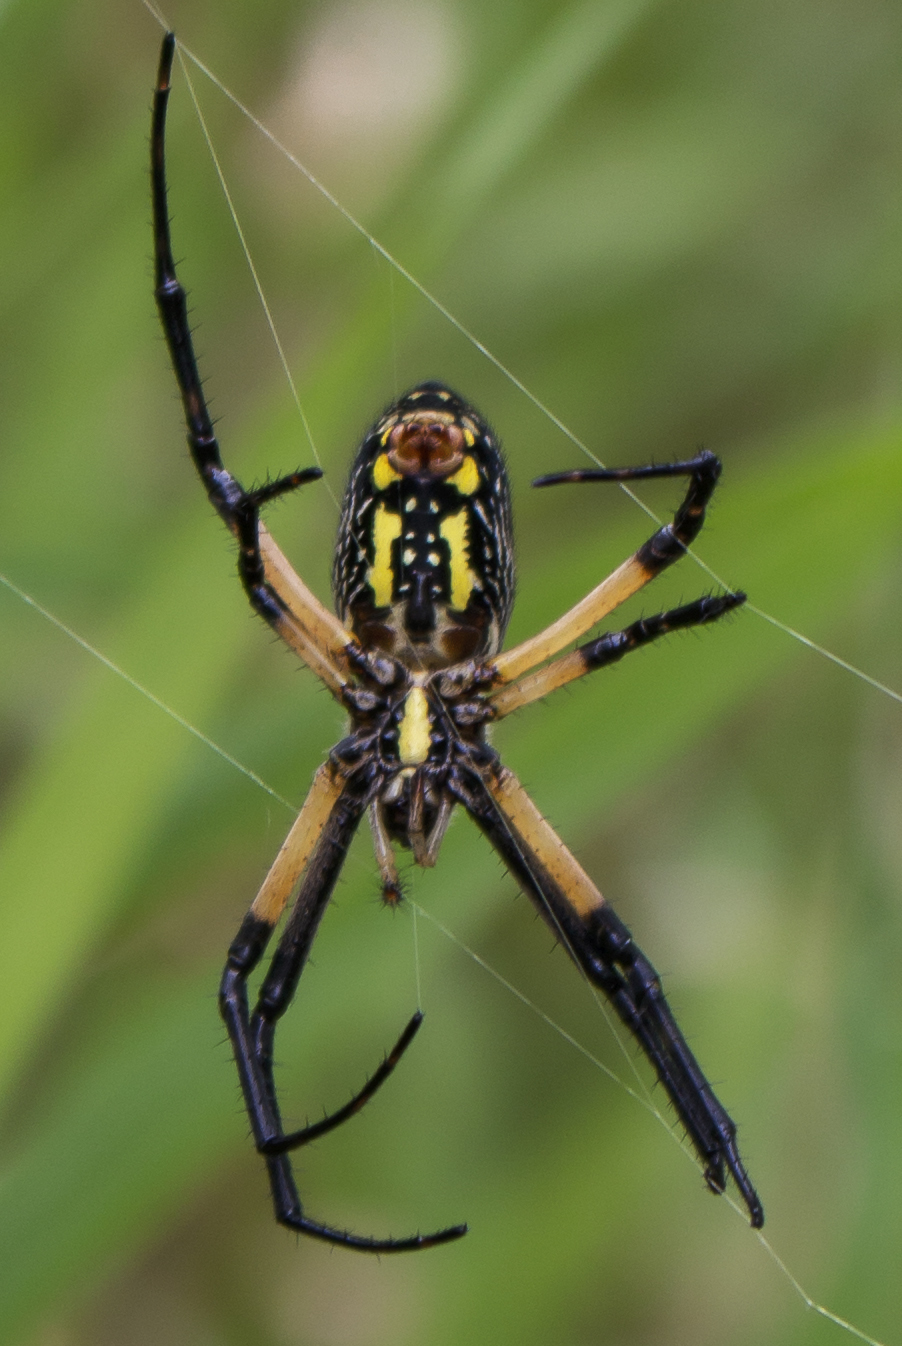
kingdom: Animalia
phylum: Arthropoda
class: Arachnida
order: Araneae
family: Araneidae
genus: Argiope
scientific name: Argiope aurantia
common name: Orb weavers
